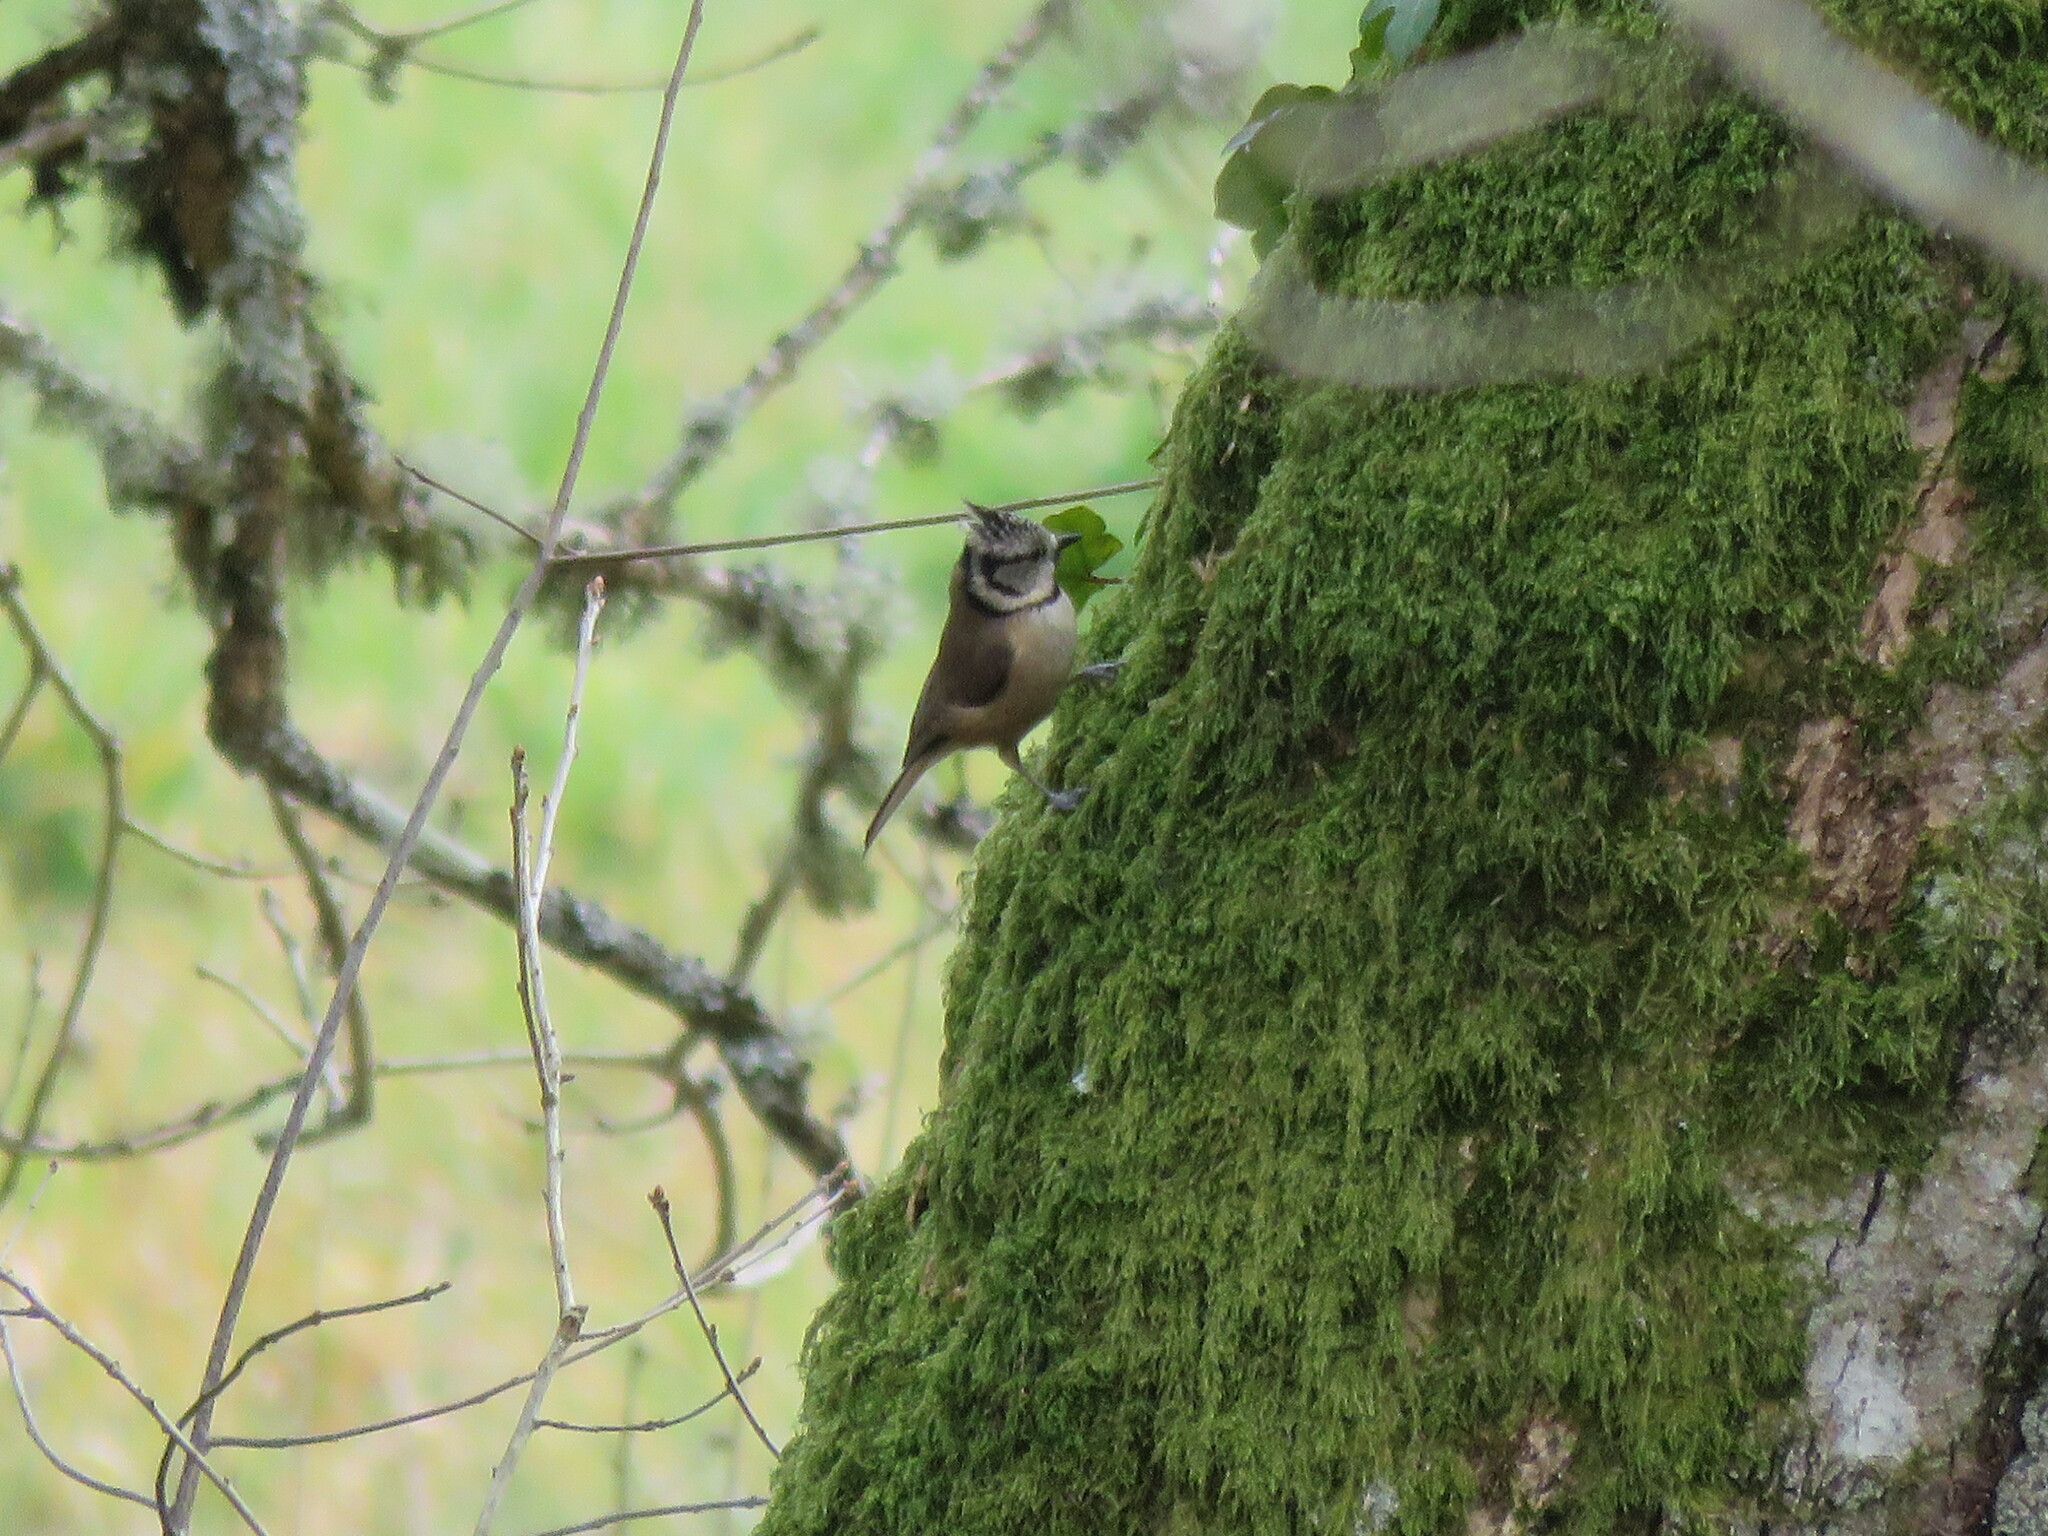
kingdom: Animalia
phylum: Chordata
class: Aves
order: Passeriformes
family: Paridae
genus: Lophophanes
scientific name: Lophophanes cristatus
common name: European crested tit
